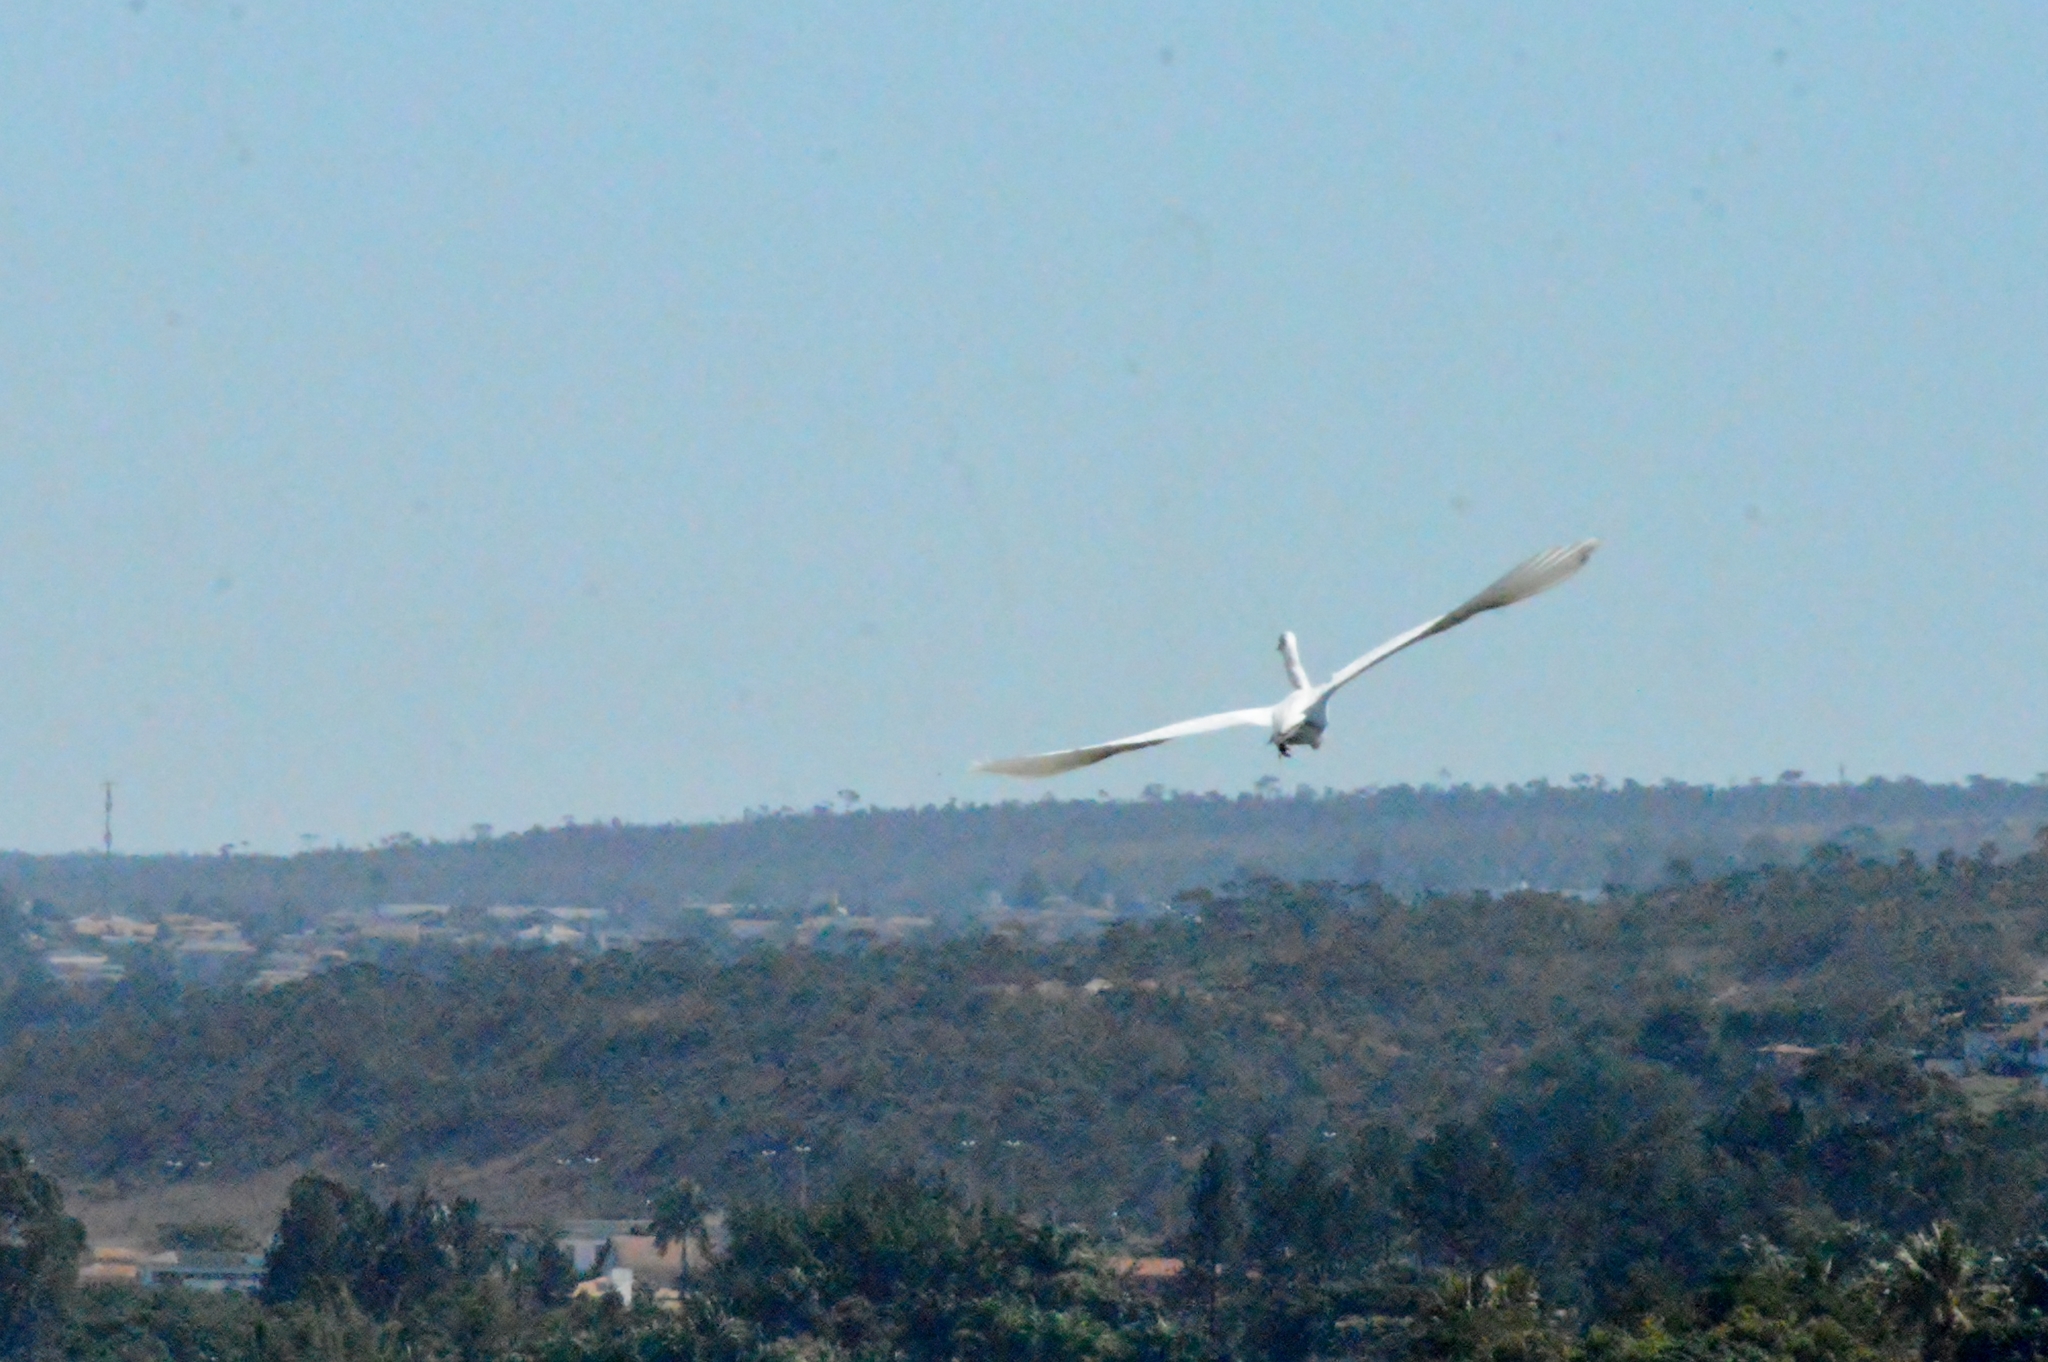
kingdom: Animalia
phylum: Chordata
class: Aves
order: Pelecaniformes
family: Ardeidae
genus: Ardea
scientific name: Ardea alba
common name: Great egret
